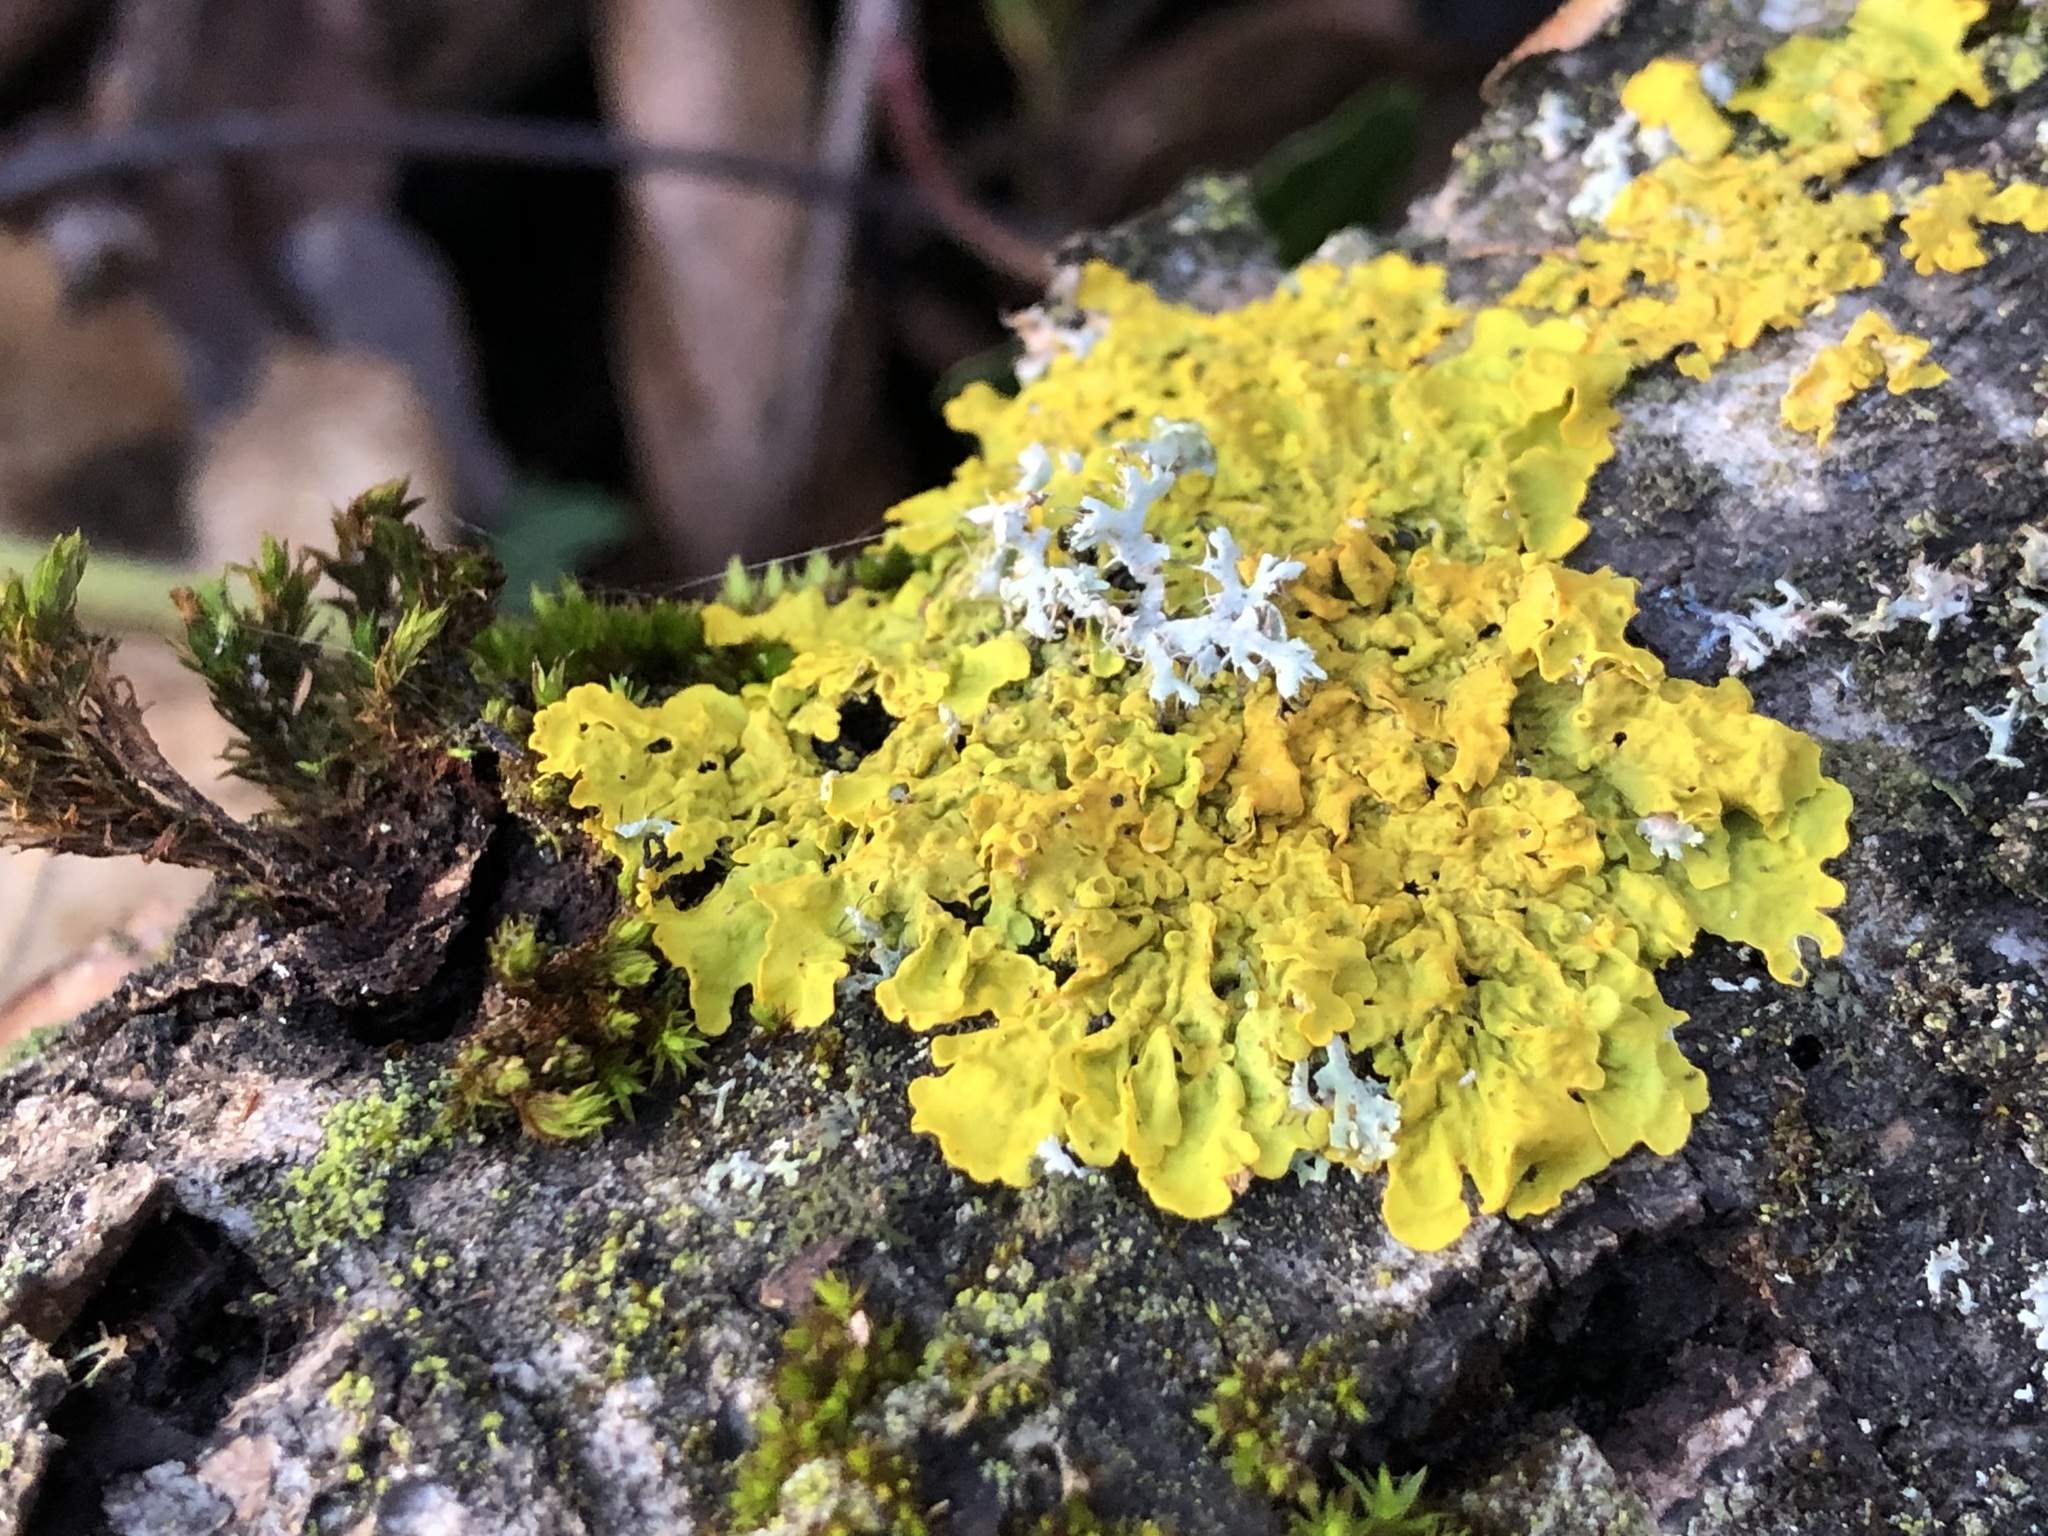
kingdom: Fungi
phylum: Ascomycota
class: Lecanoromycetes
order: Teloschistales
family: Teloschistaceae
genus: Xanthoria
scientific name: Xanthoria parietina
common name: Common orange lichen
